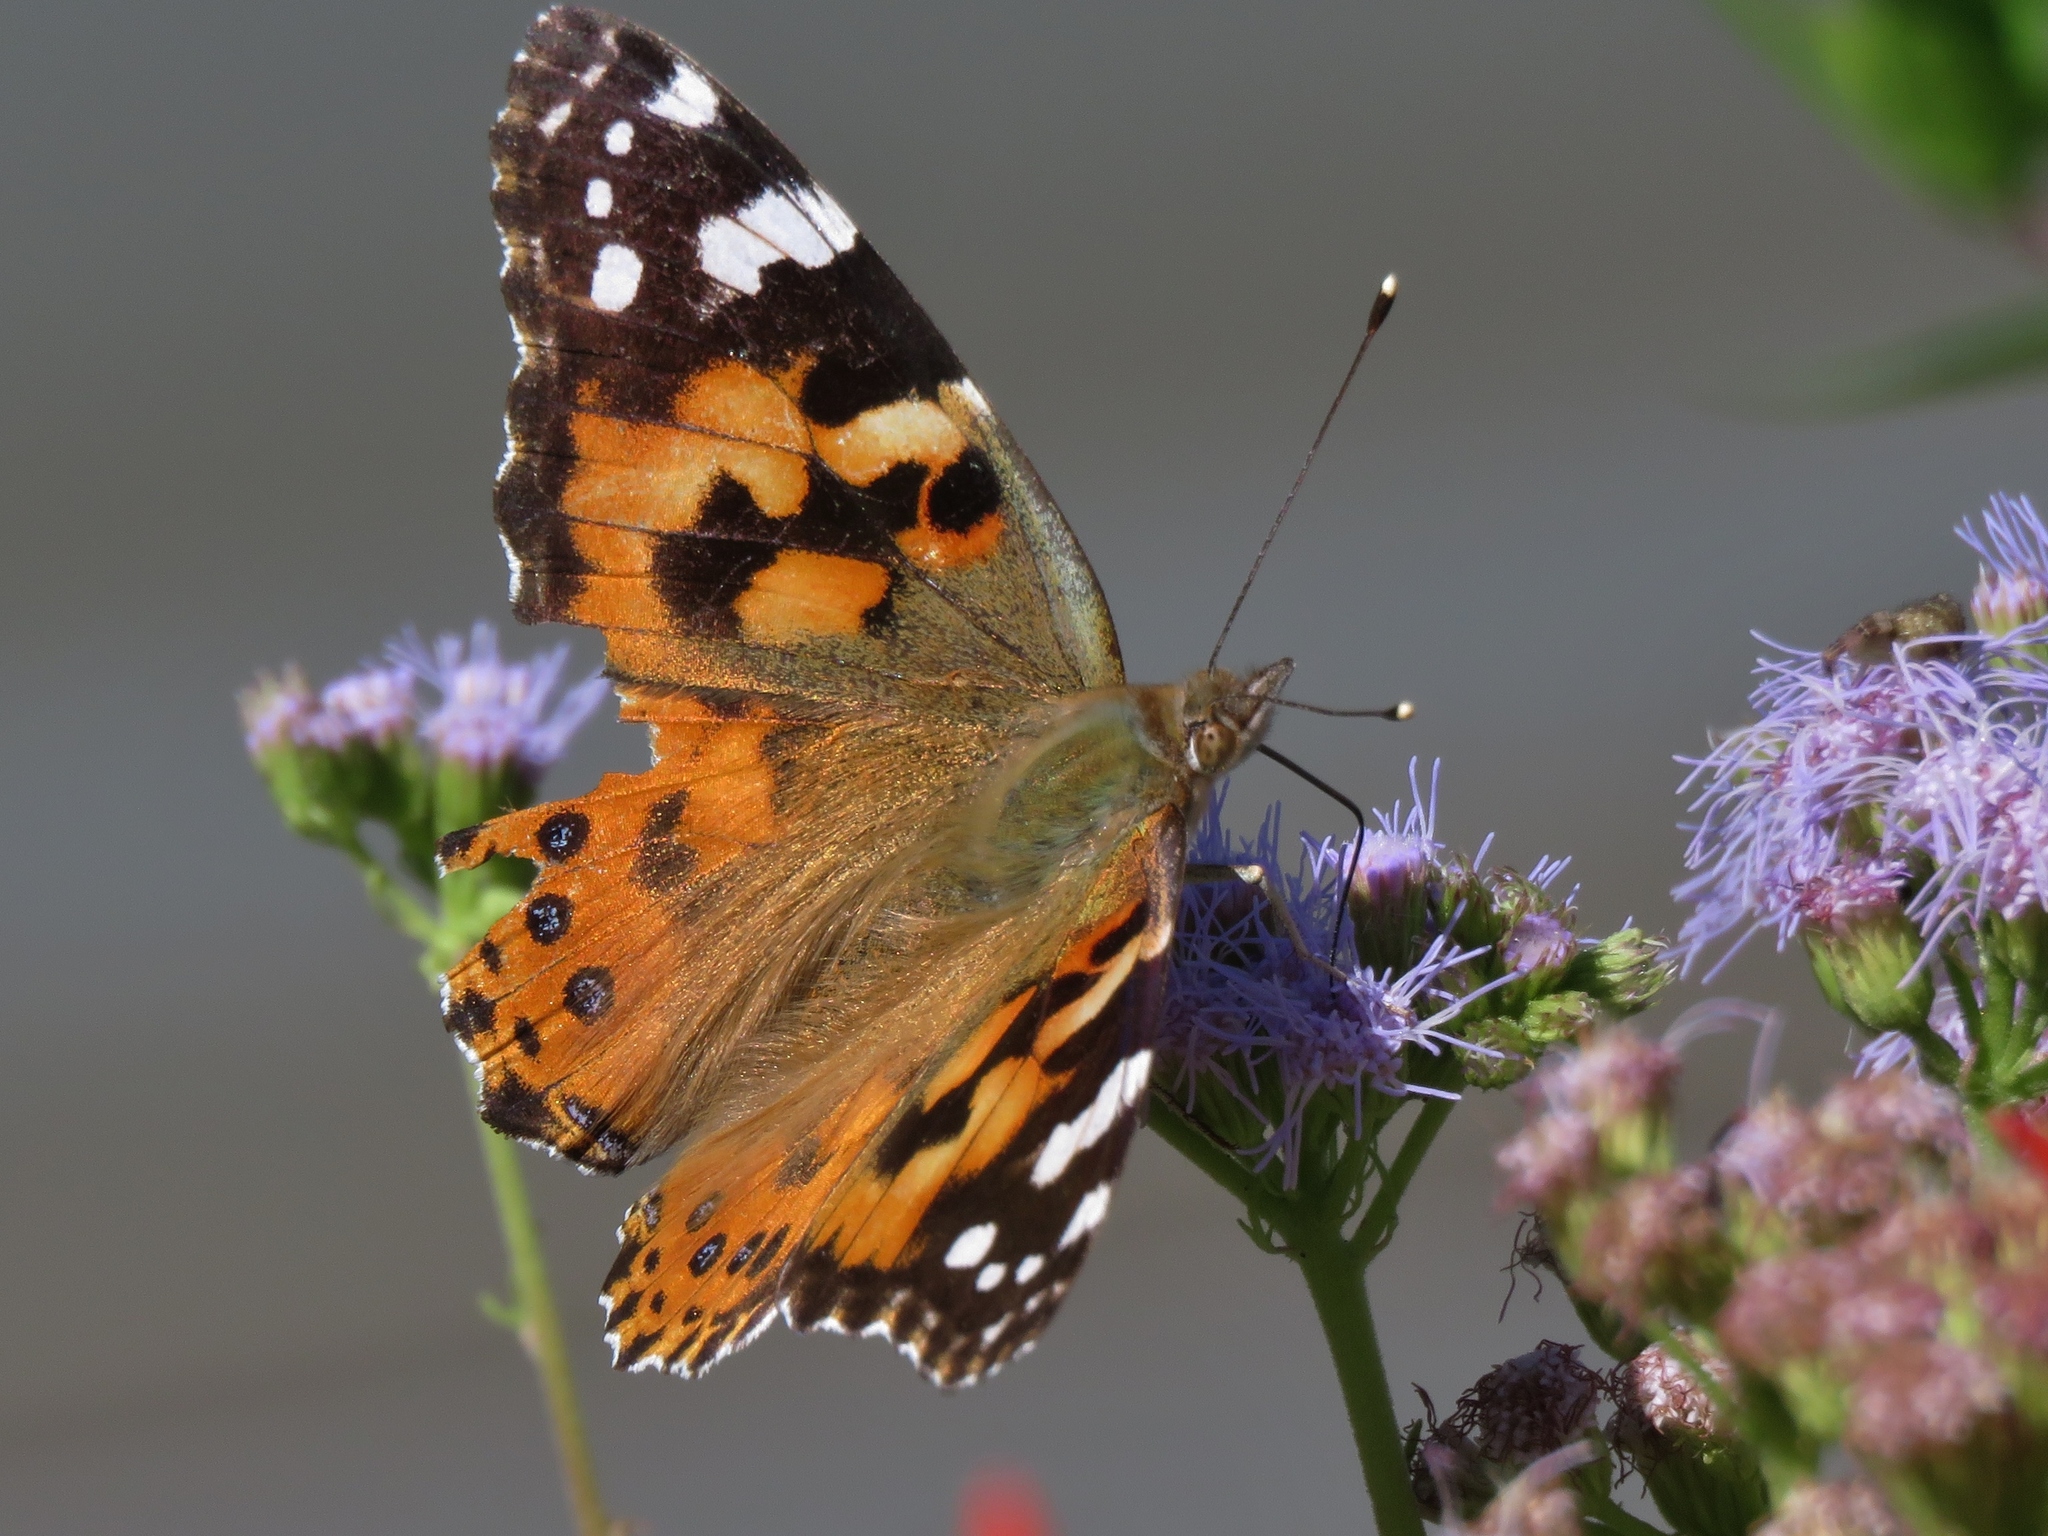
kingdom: Animalia
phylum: Arthropoda
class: Insecta
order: Lepidoptera
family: Nymphalidae
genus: Vanessa
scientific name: Vanessa cardui
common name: Painted lady
